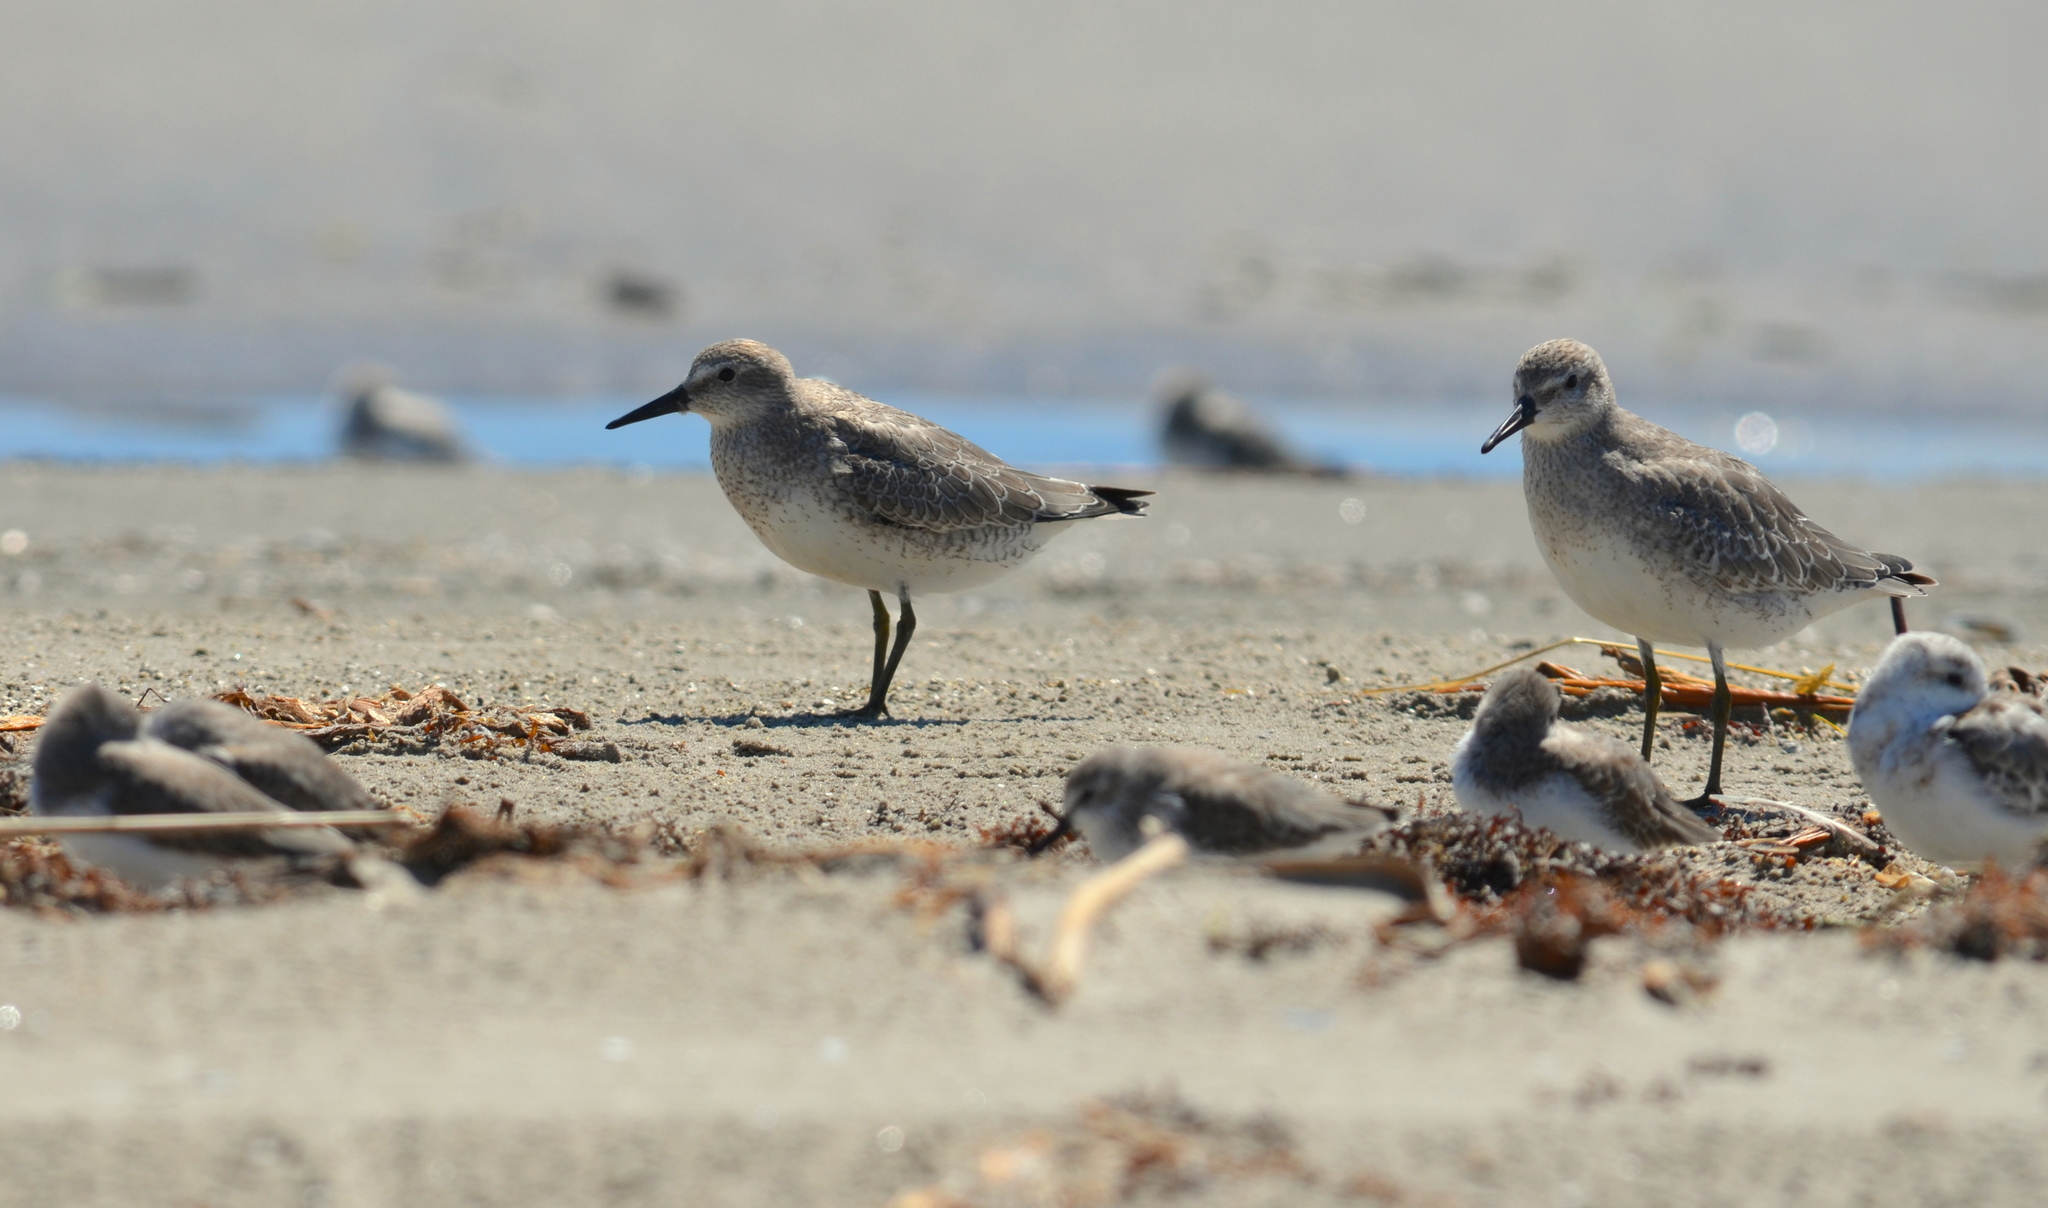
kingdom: Animalia
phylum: Chordata
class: Aves
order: Charadriiformes
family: Scolopacidae
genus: Calidris
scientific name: Calidris canutus
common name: Red knot
